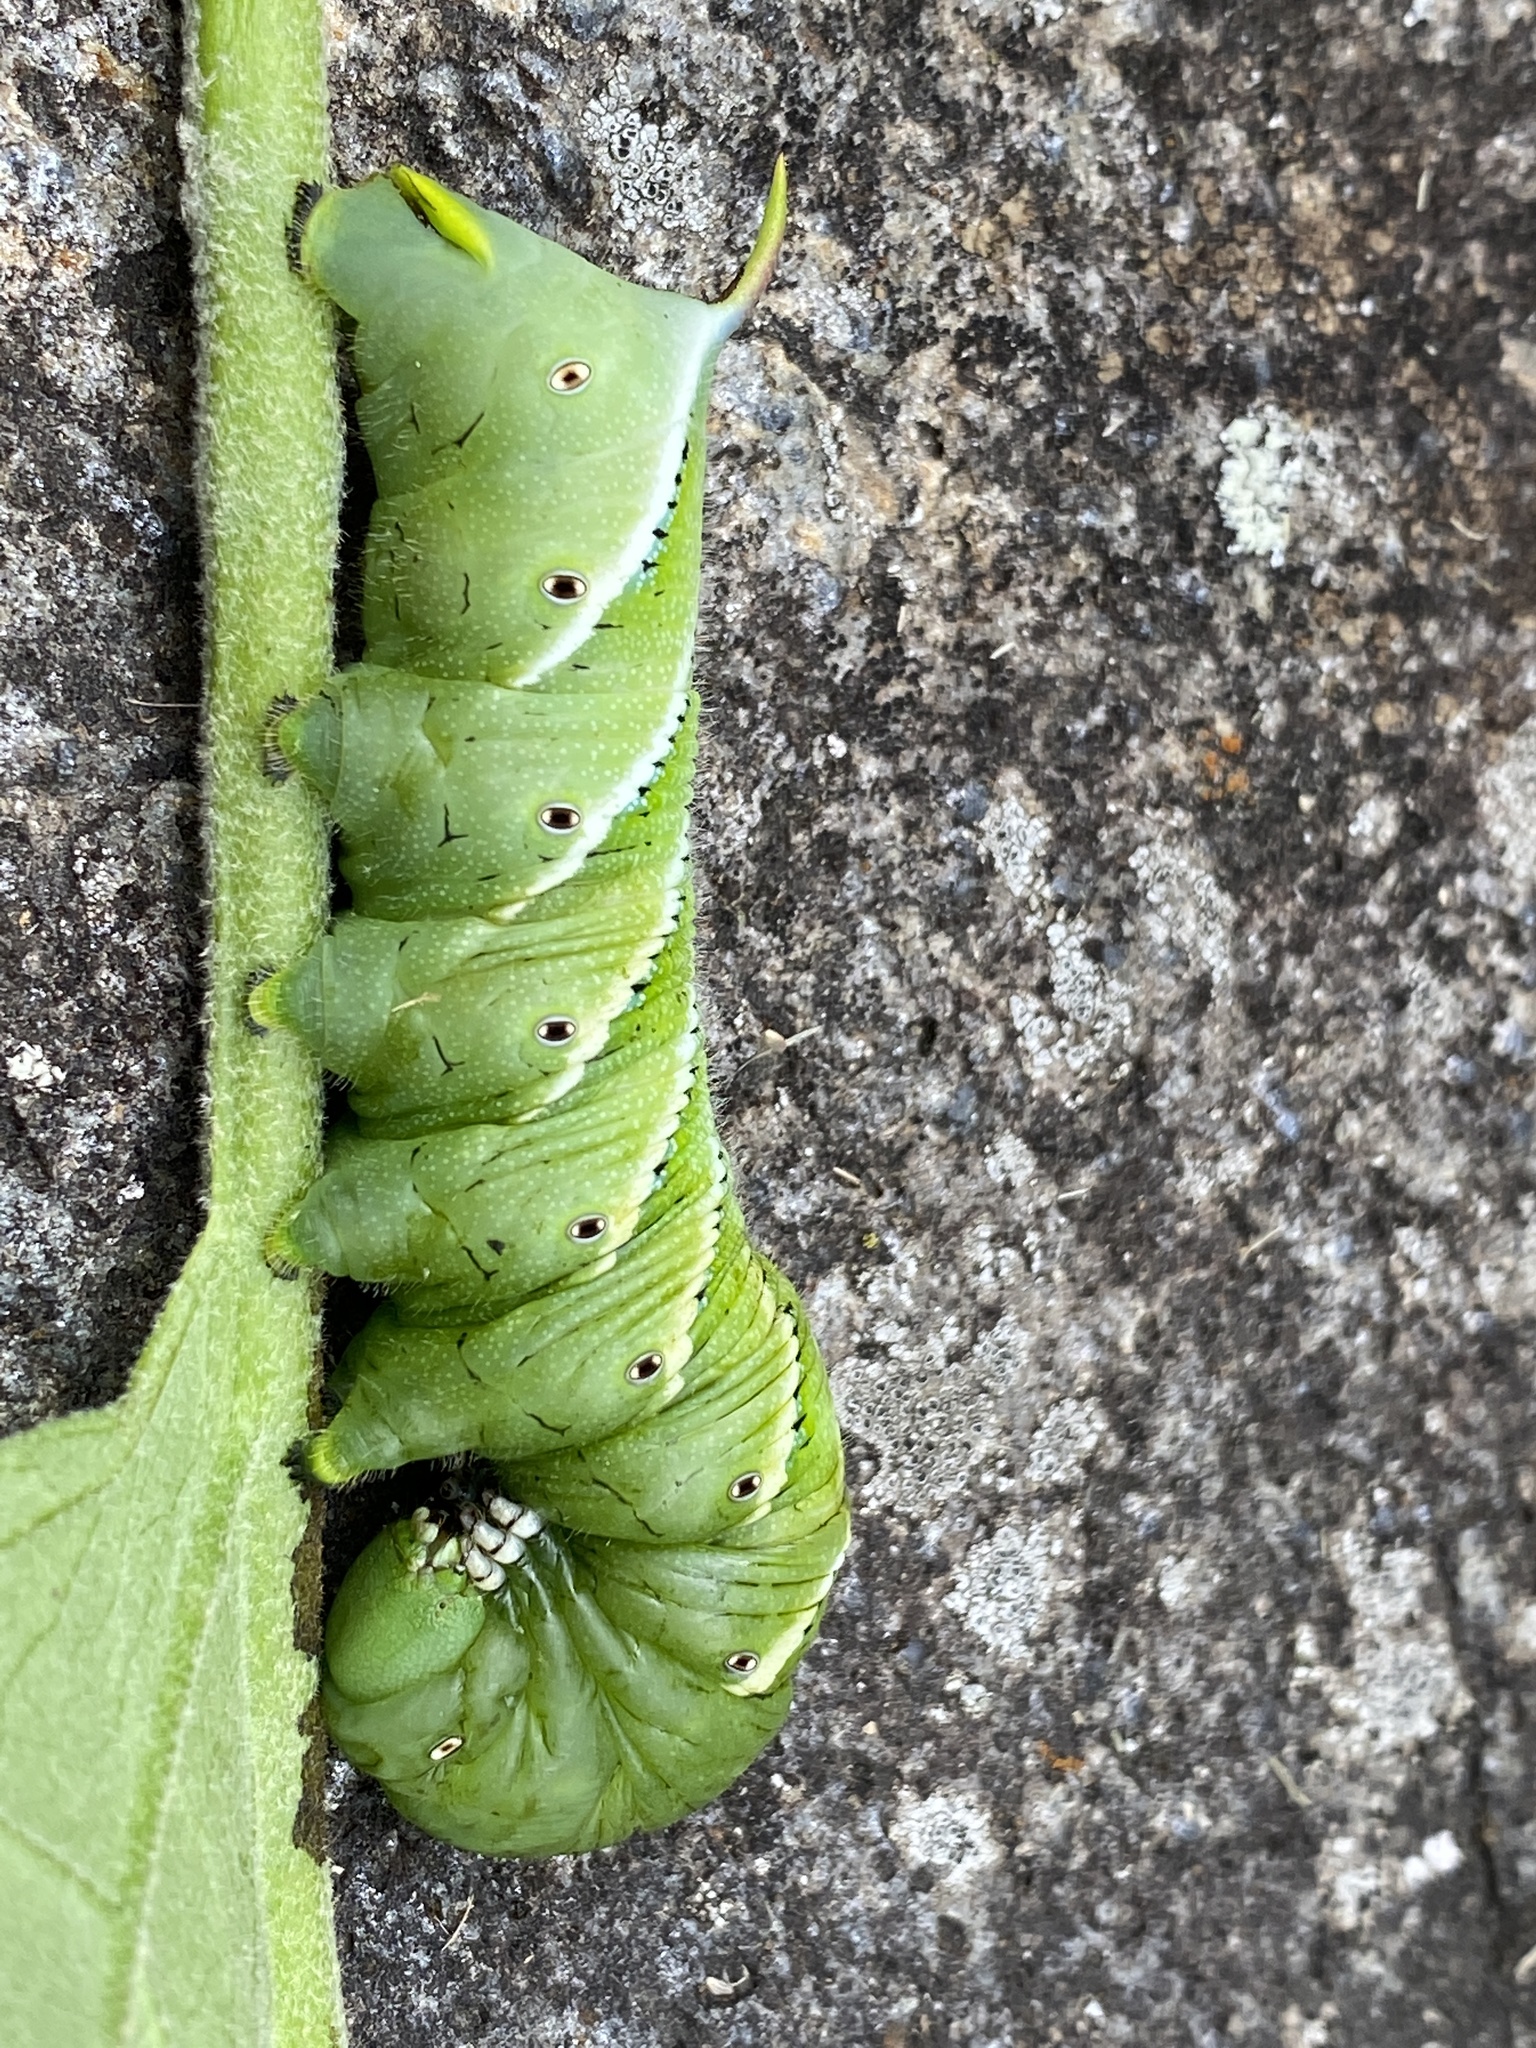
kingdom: Animalia
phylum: Arthropoda
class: Insecta
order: Lepidoptera
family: Sphingidae
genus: Manduca
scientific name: Manduca sexta
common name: Carolina sphinx
